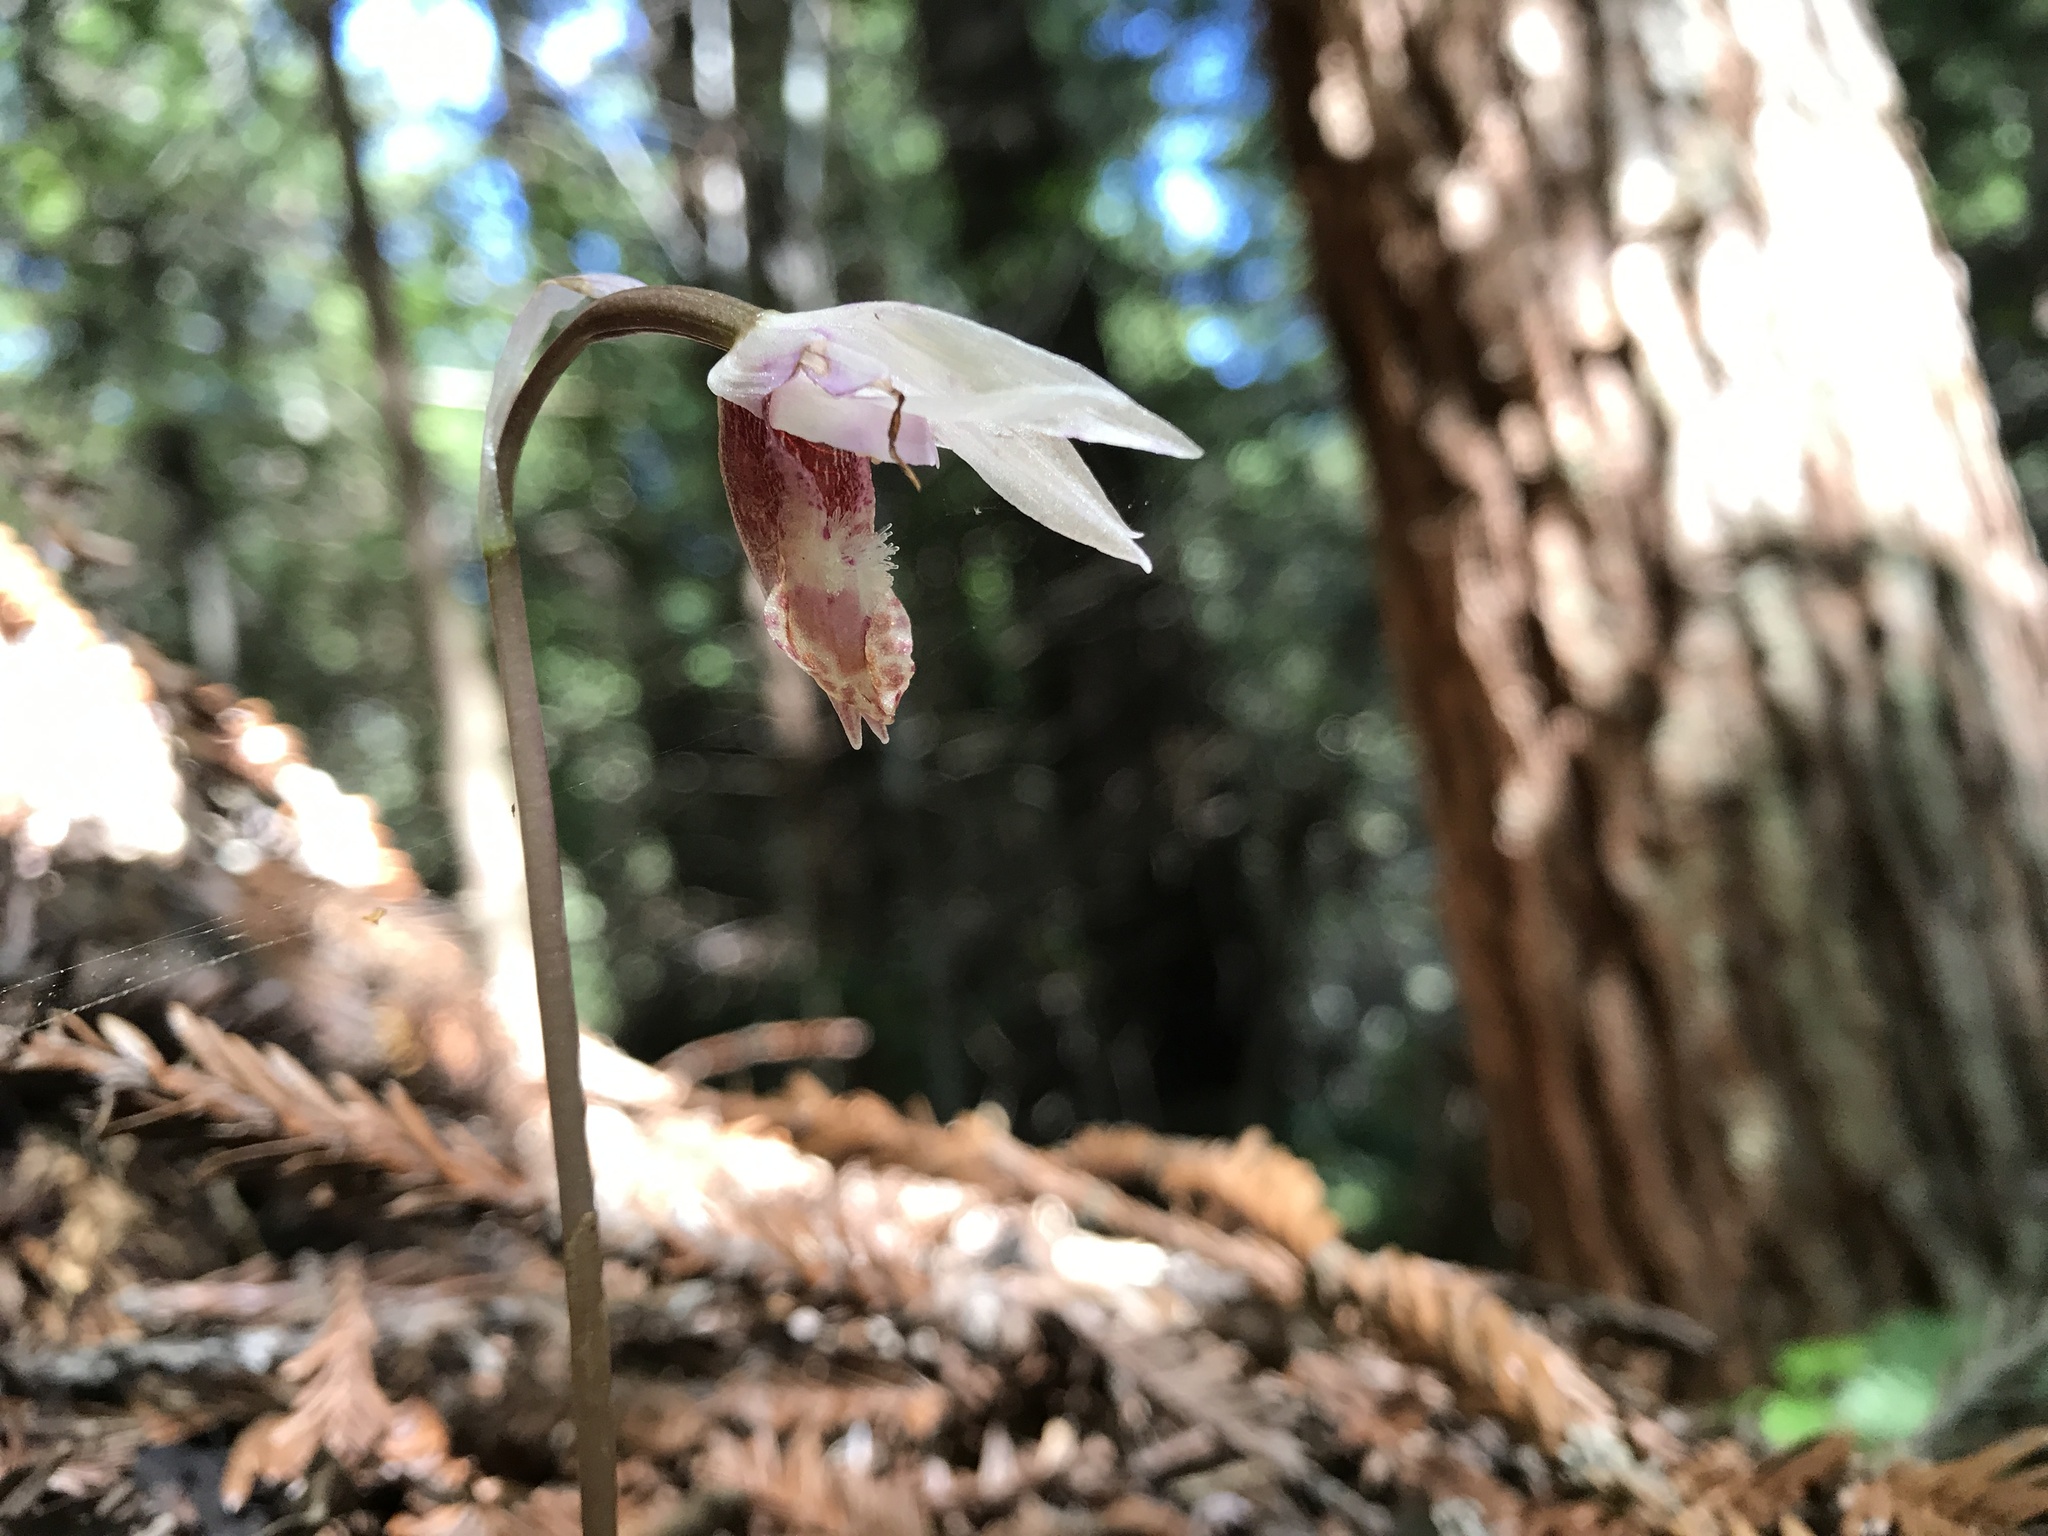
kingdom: Plantae
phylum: Tracheophyta
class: Liliopsida
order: Asparagales
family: Orchidaceae
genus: Calypso
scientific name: Calypso bulbosa
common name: Calypso
